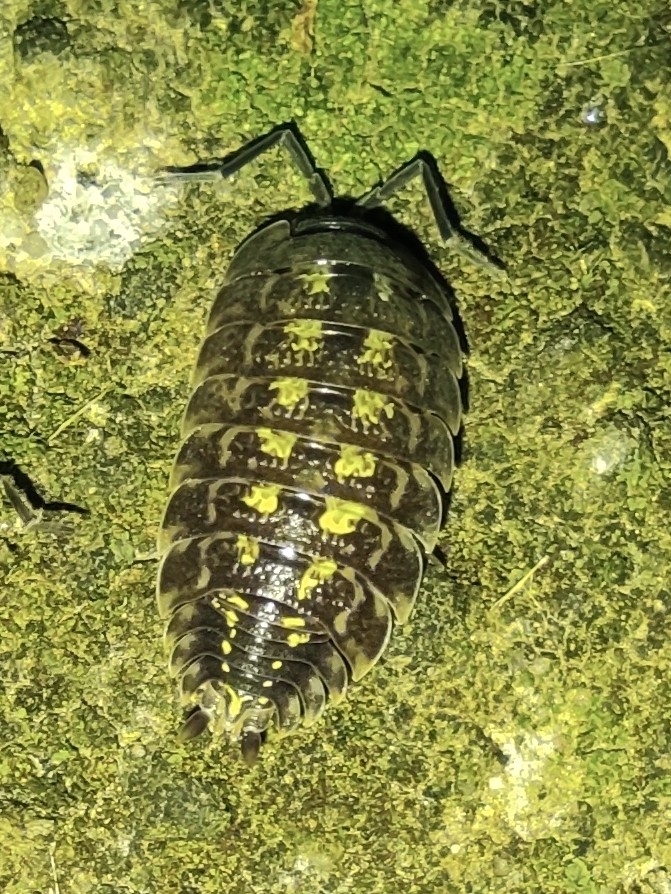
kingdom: Animalia
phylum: Arthropoda
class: Malacostraca
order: Isopoda
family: Porcellionidae
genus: Porcellio
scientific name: Porcellio spinicornis
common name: Painted woodlouse
